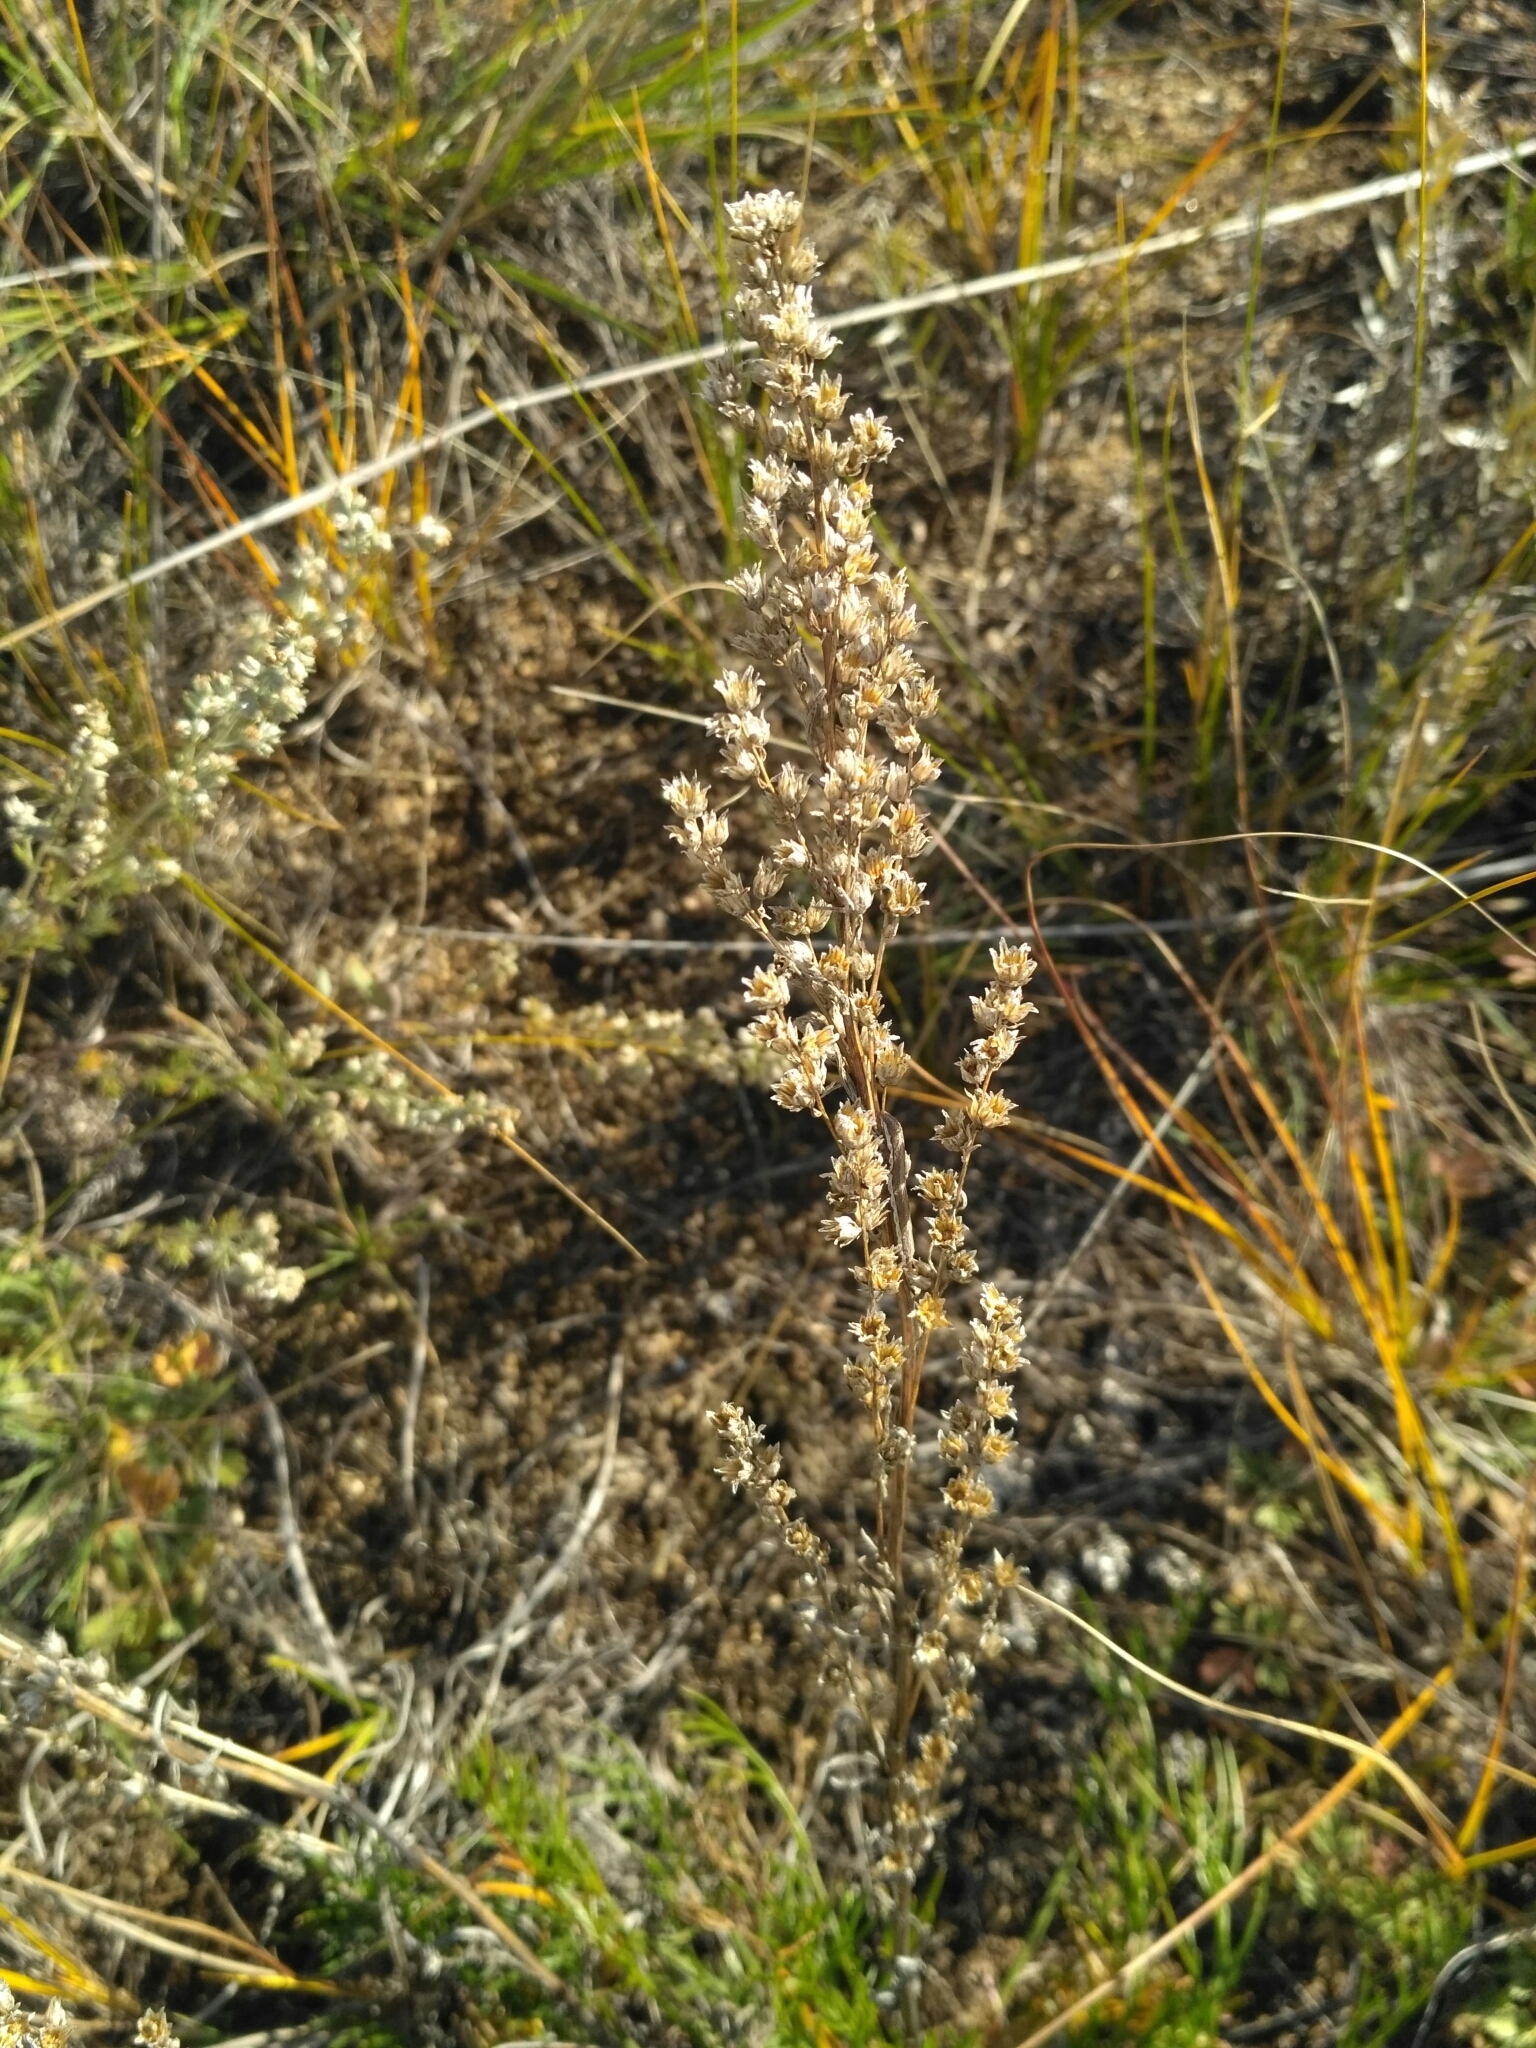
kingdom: Plantae
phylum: Tracheophyta
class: Magnoliopsida
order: Asterales
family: Asteraceae
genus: Artemisia
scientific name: Artemisia pubescens
